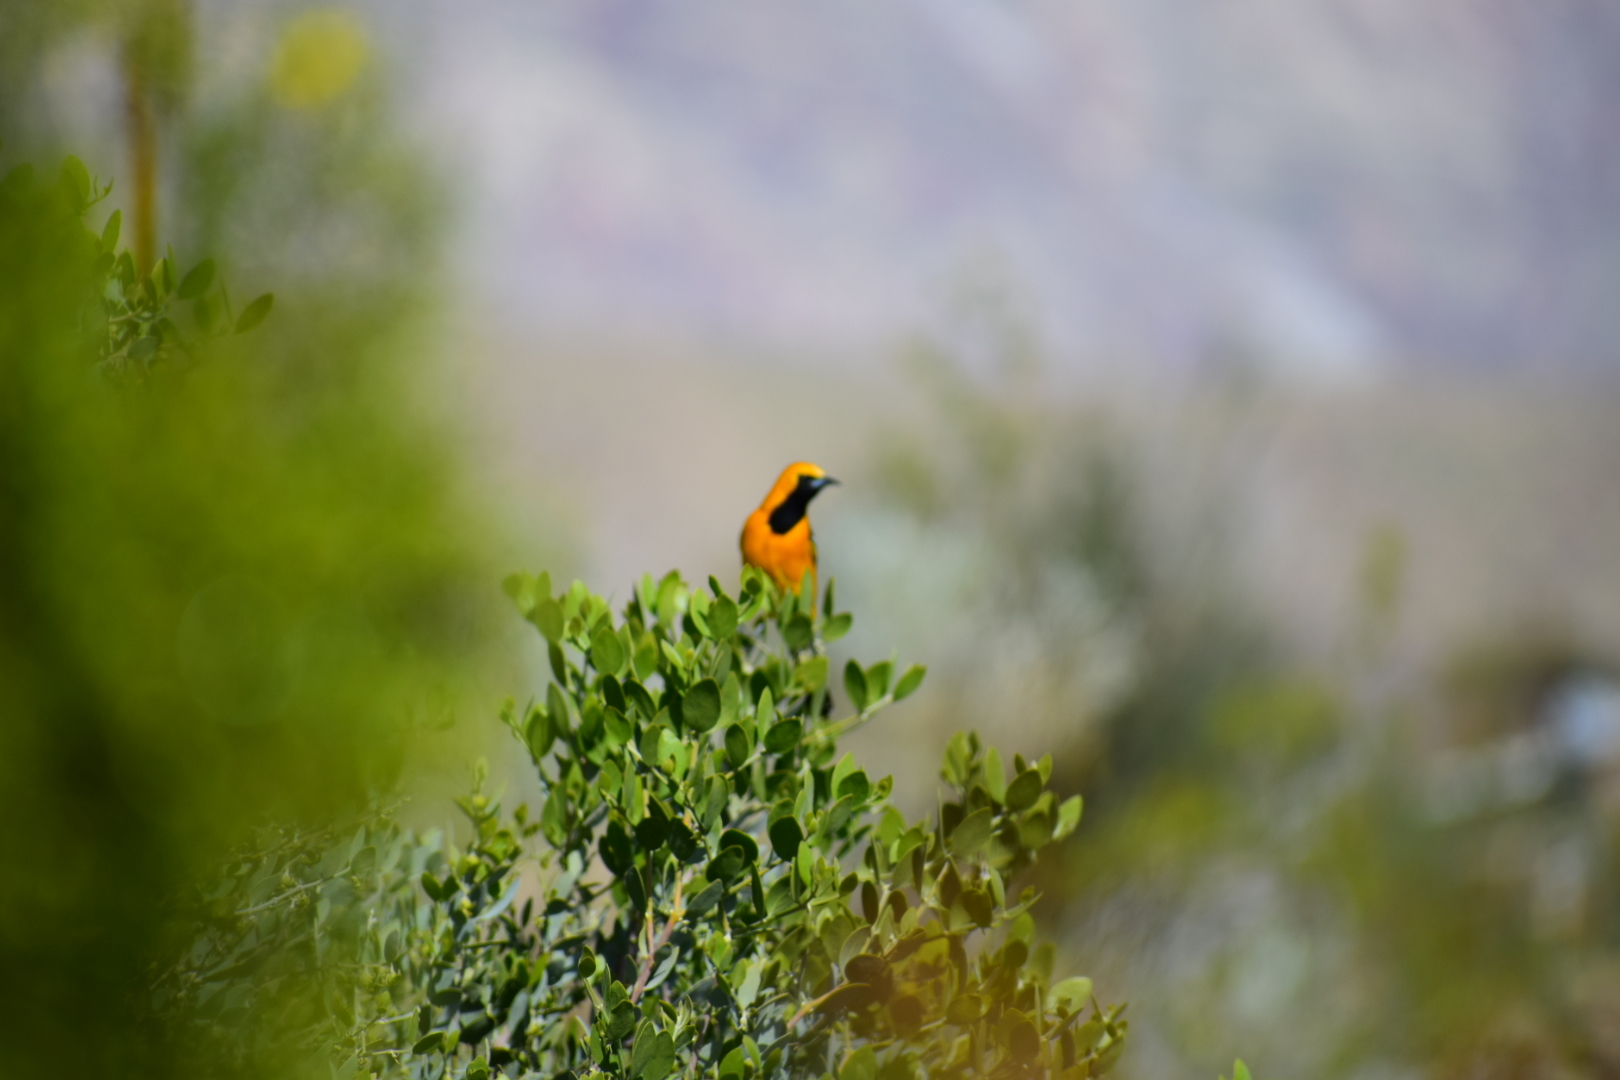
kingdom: Animalia
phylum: Chordata
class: Aves
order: Passeriformes
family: Icteridae
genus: Icterus
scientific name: Icterus cucullatus
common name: Hooded oriole
